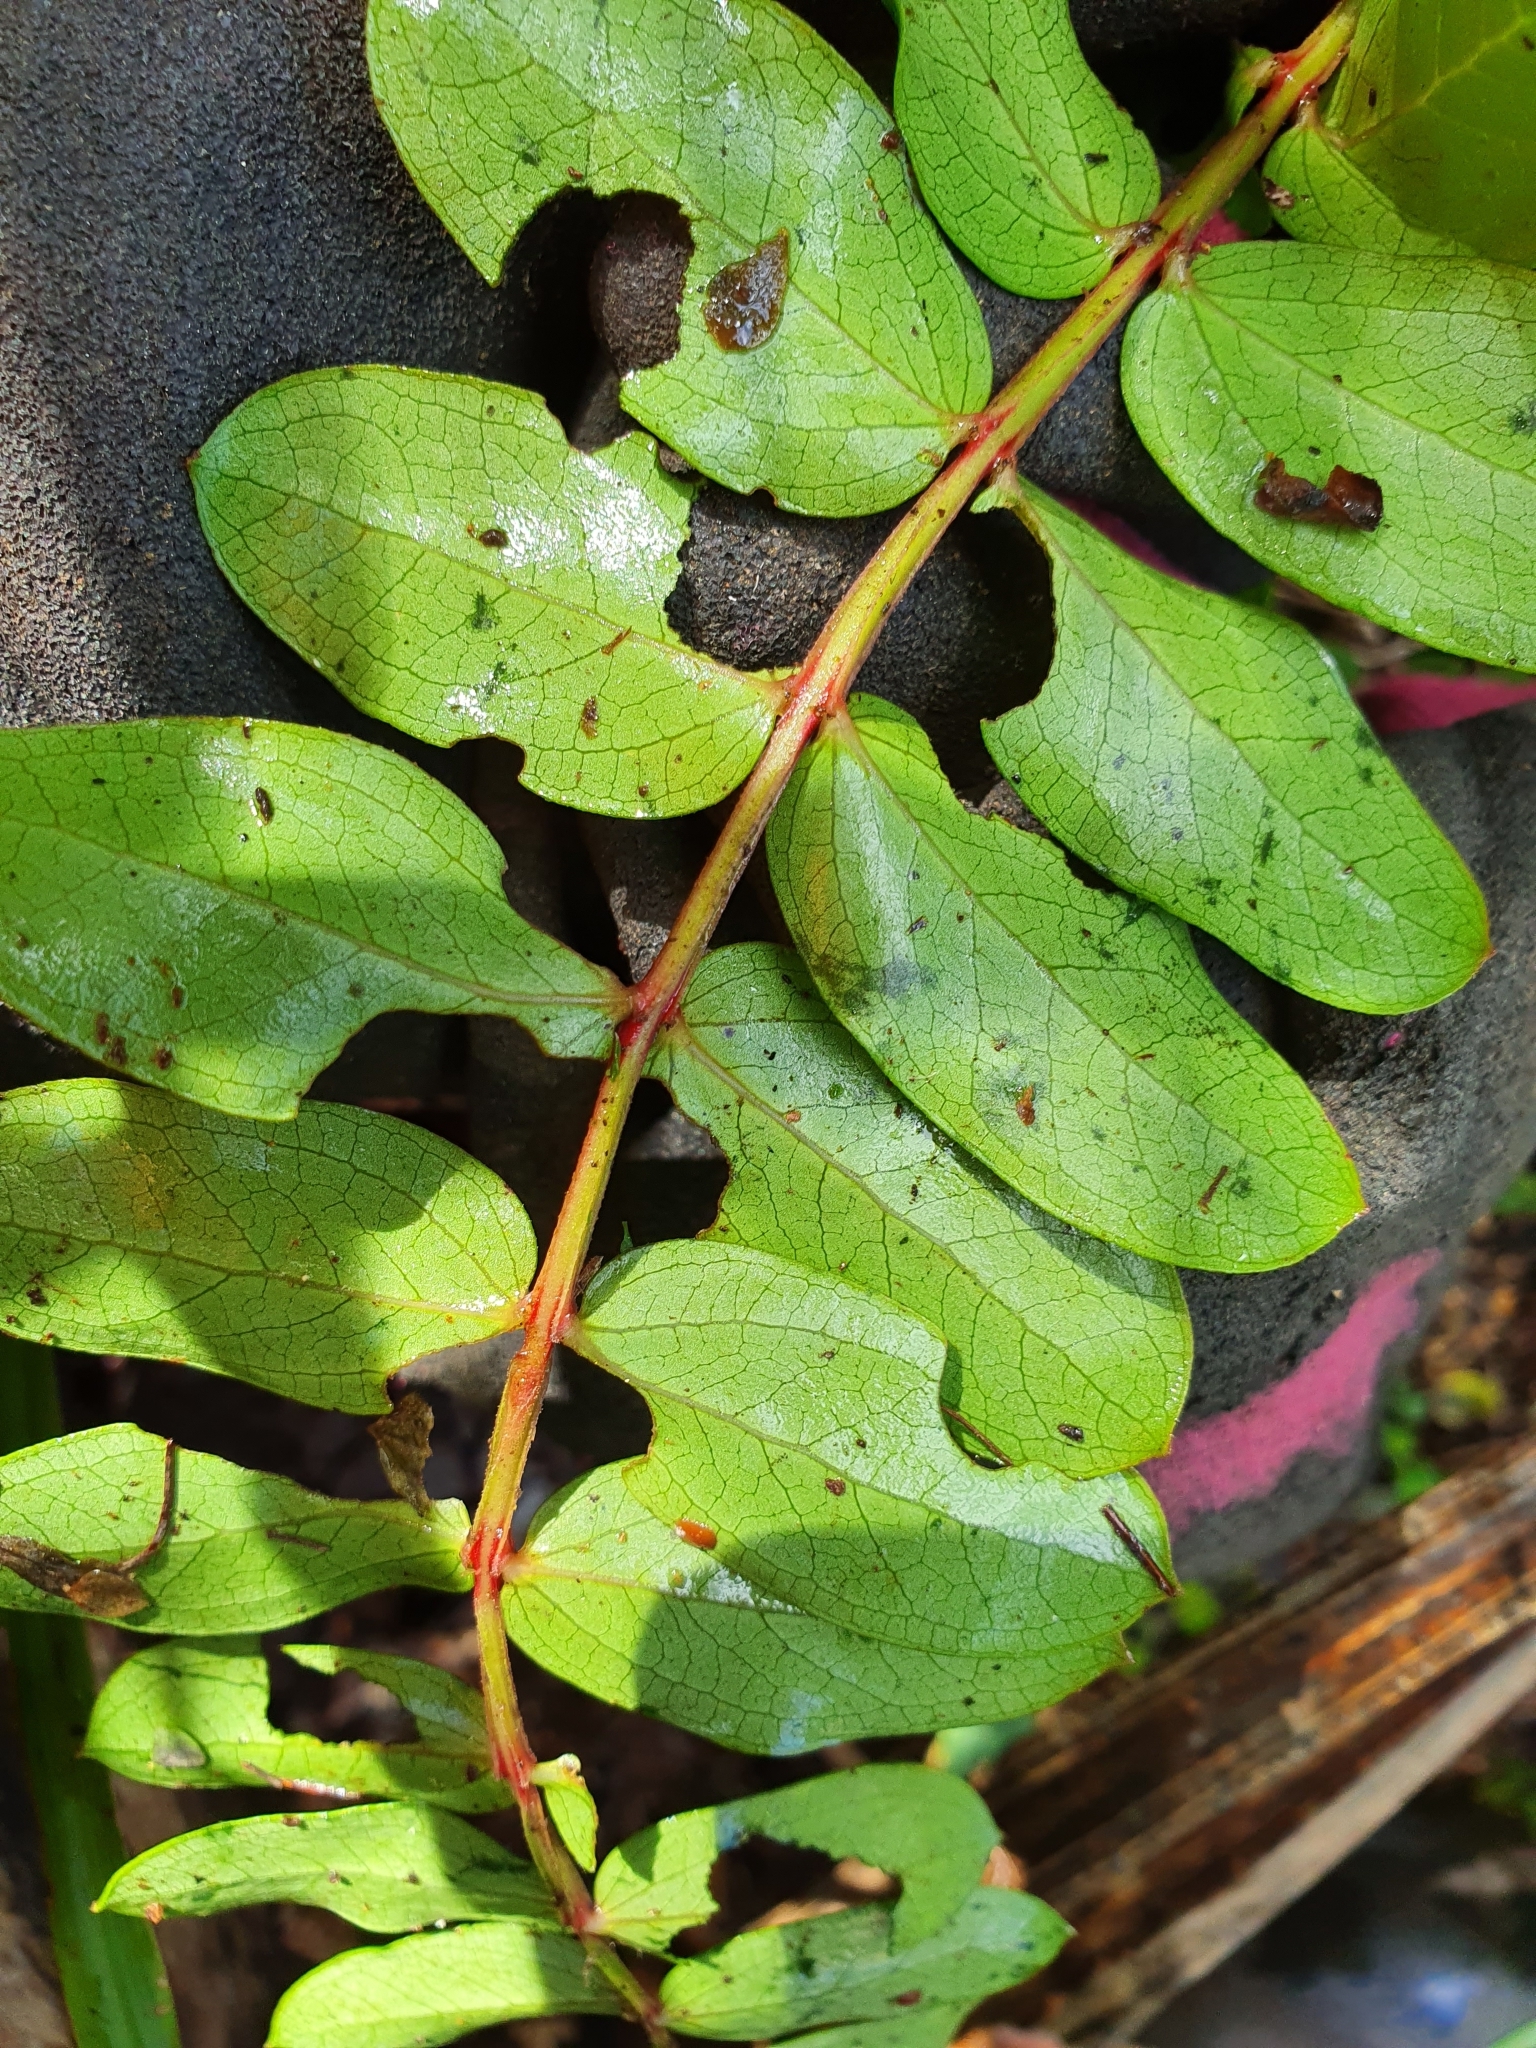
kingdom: Plantae
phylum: Tracheophyta
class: Magnoliopsida
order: Cucurbitales
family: Coriariaceae
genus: Coriaria
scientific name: Coriaria arborea
